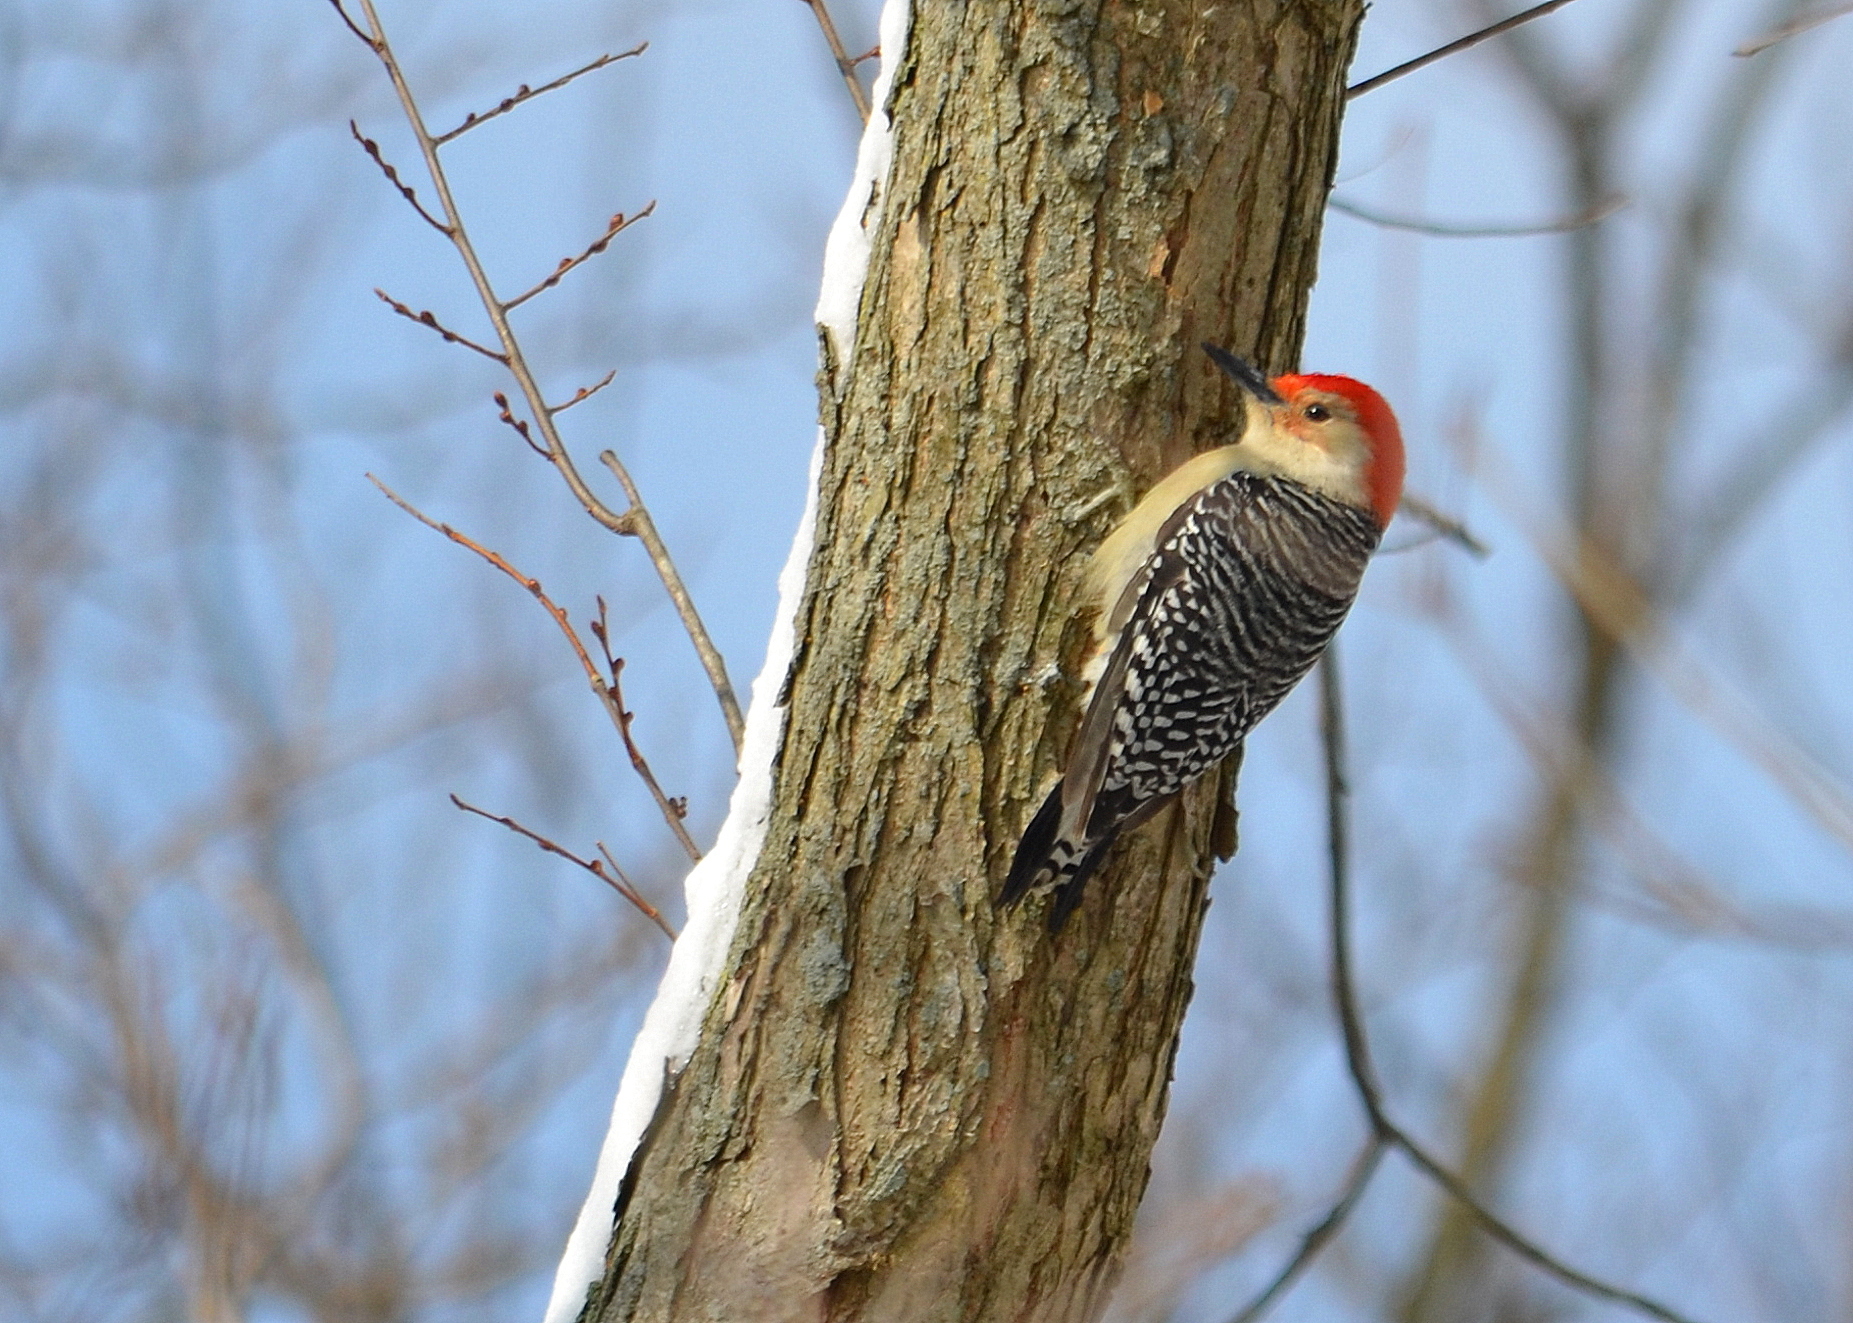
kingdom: Animalia
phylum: Chordata
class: Aves
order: Piciformes
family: Picidae
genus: Melanerpes
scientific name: Melanerpes carolinus
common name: Red-bellied woodpecker
